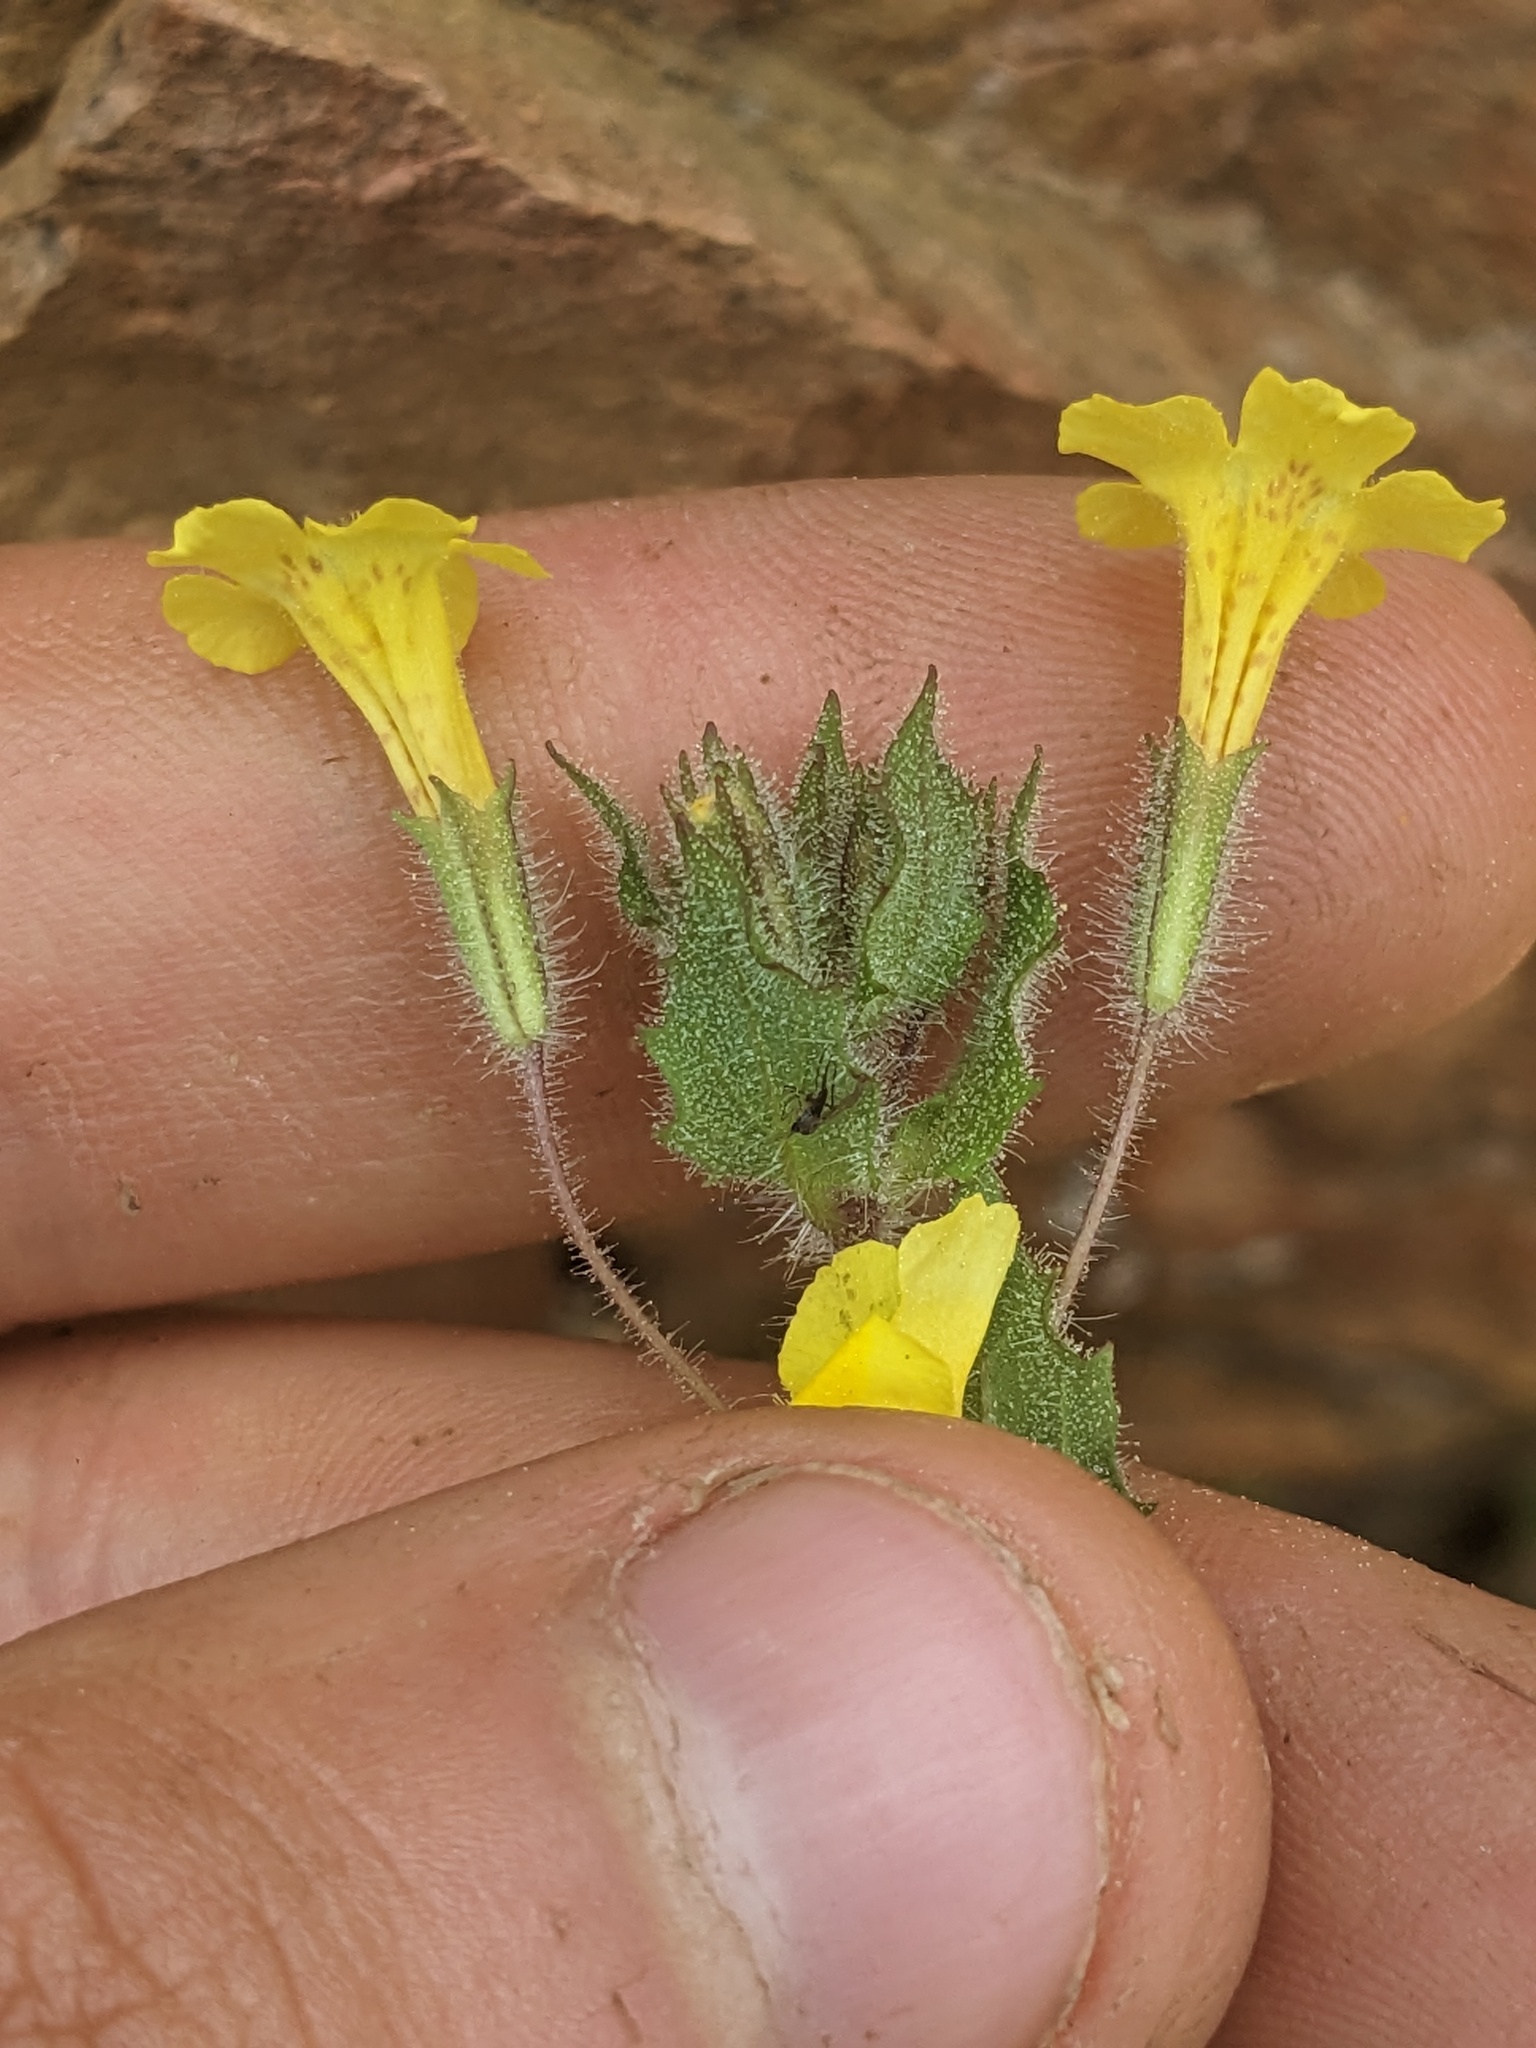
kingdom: Plantae
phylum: Tracheophyta
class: Magnoliopsida
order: Lamiales
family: Phrymaceae
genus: Erythranthe
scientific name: Erythranthe arenaria
